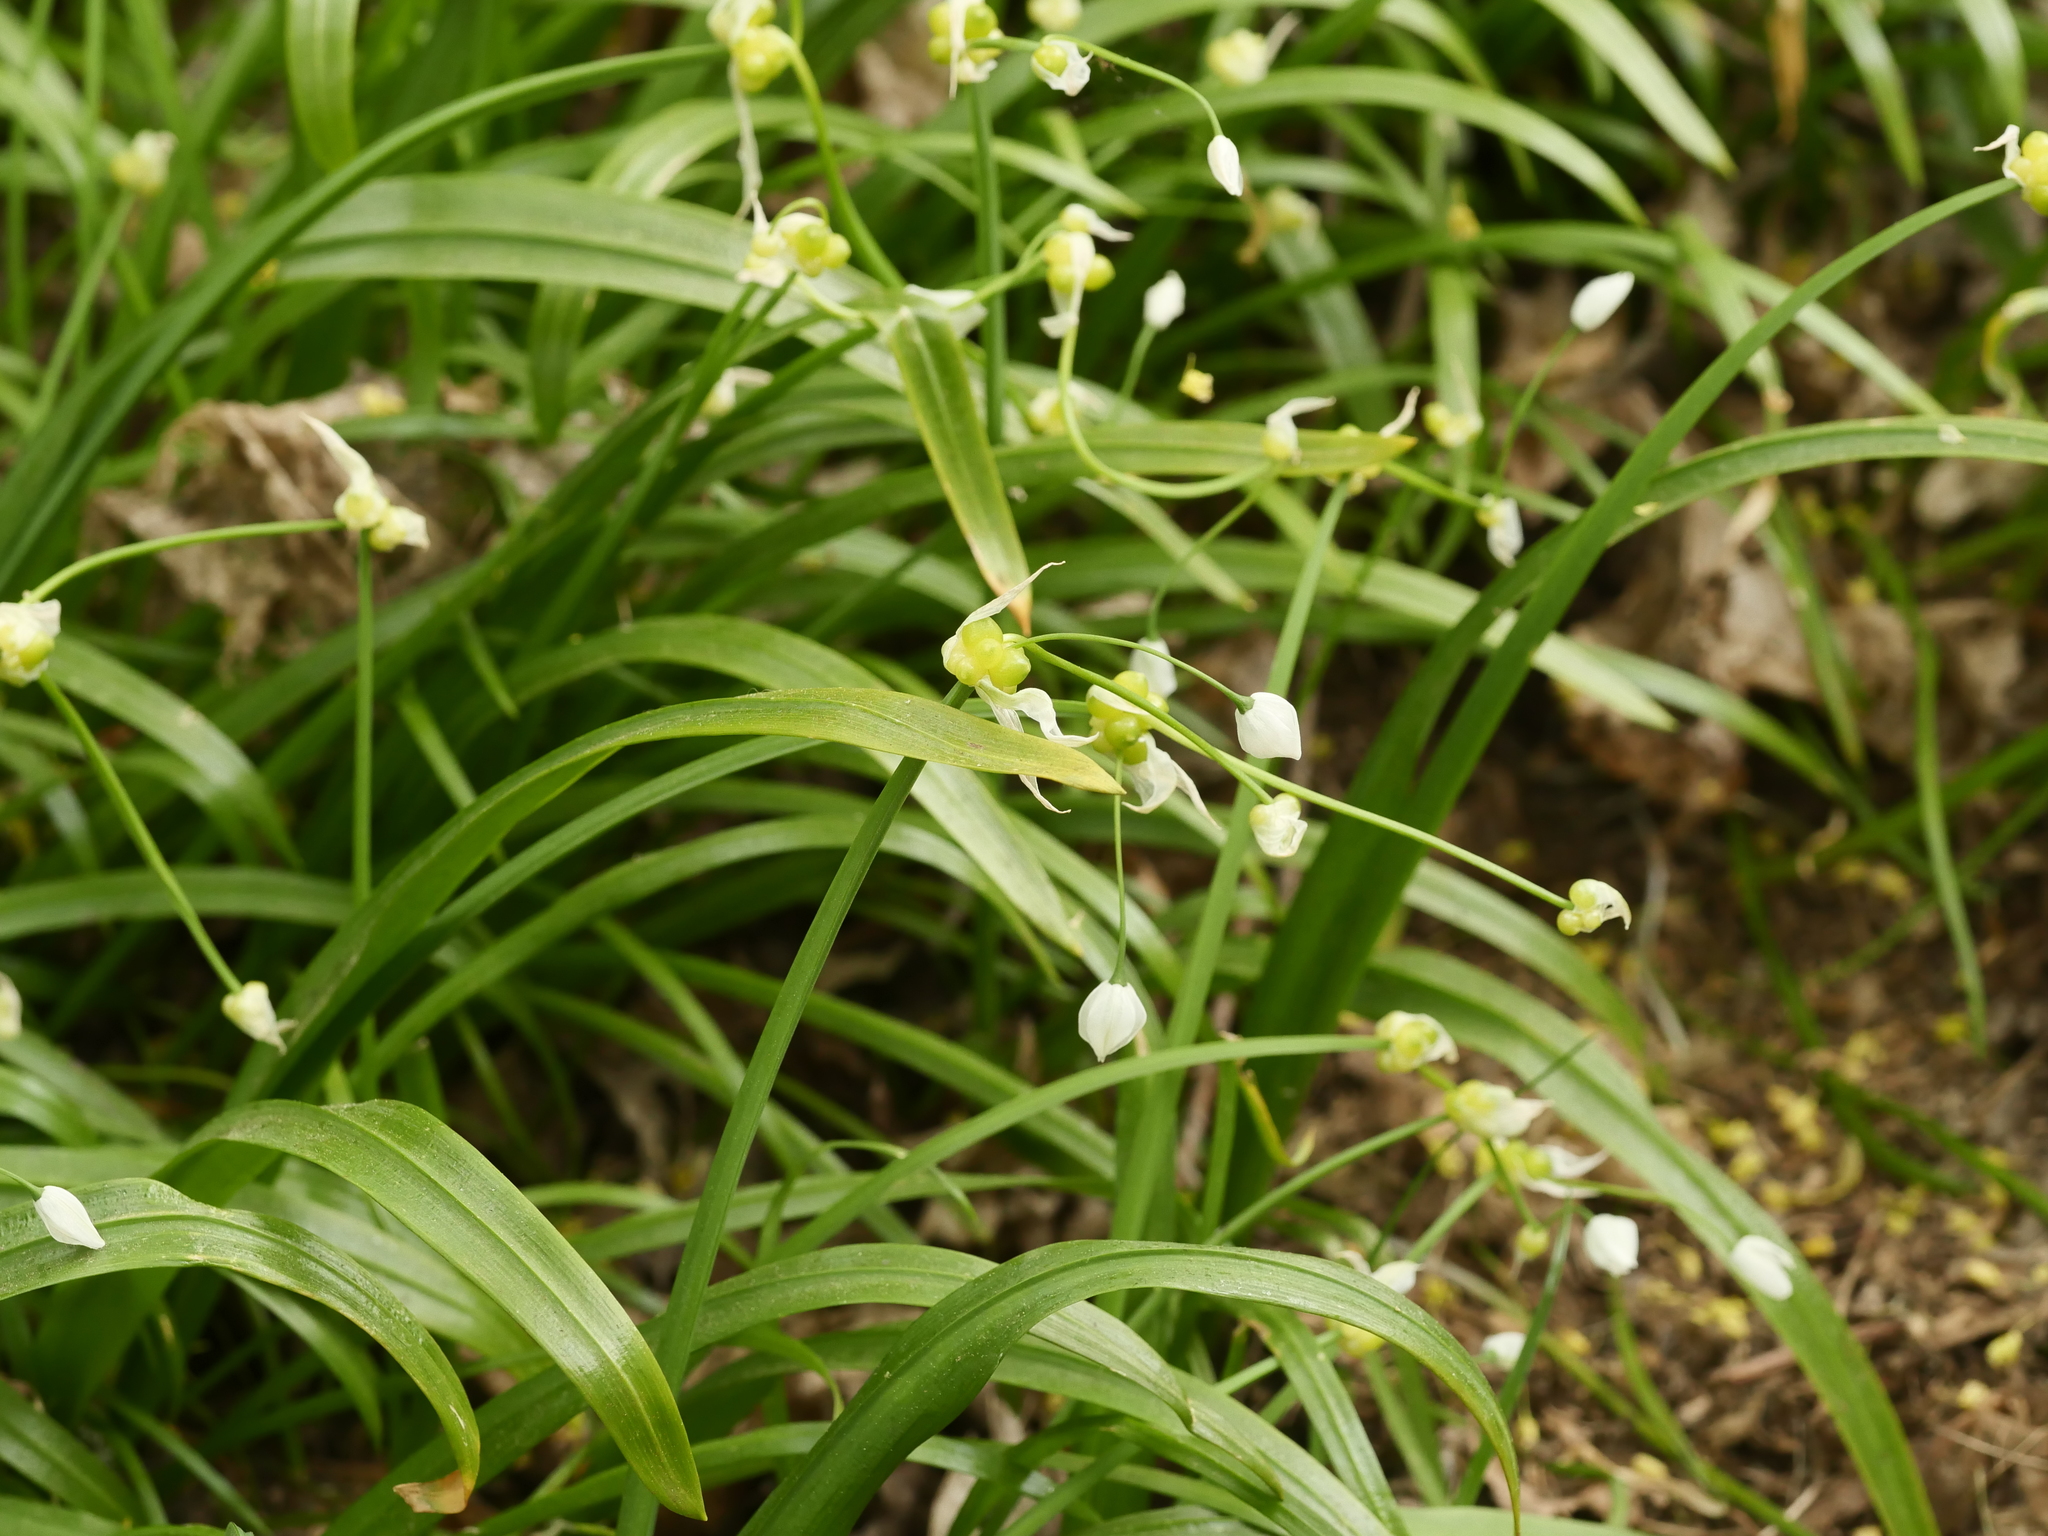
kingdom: Plantae
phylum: Tracheophyta
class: Liliopsida
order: Asparagales
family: Amaryllidaceae
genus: Allium
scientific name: Allium paradoxum
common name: Few-flowered garlic
